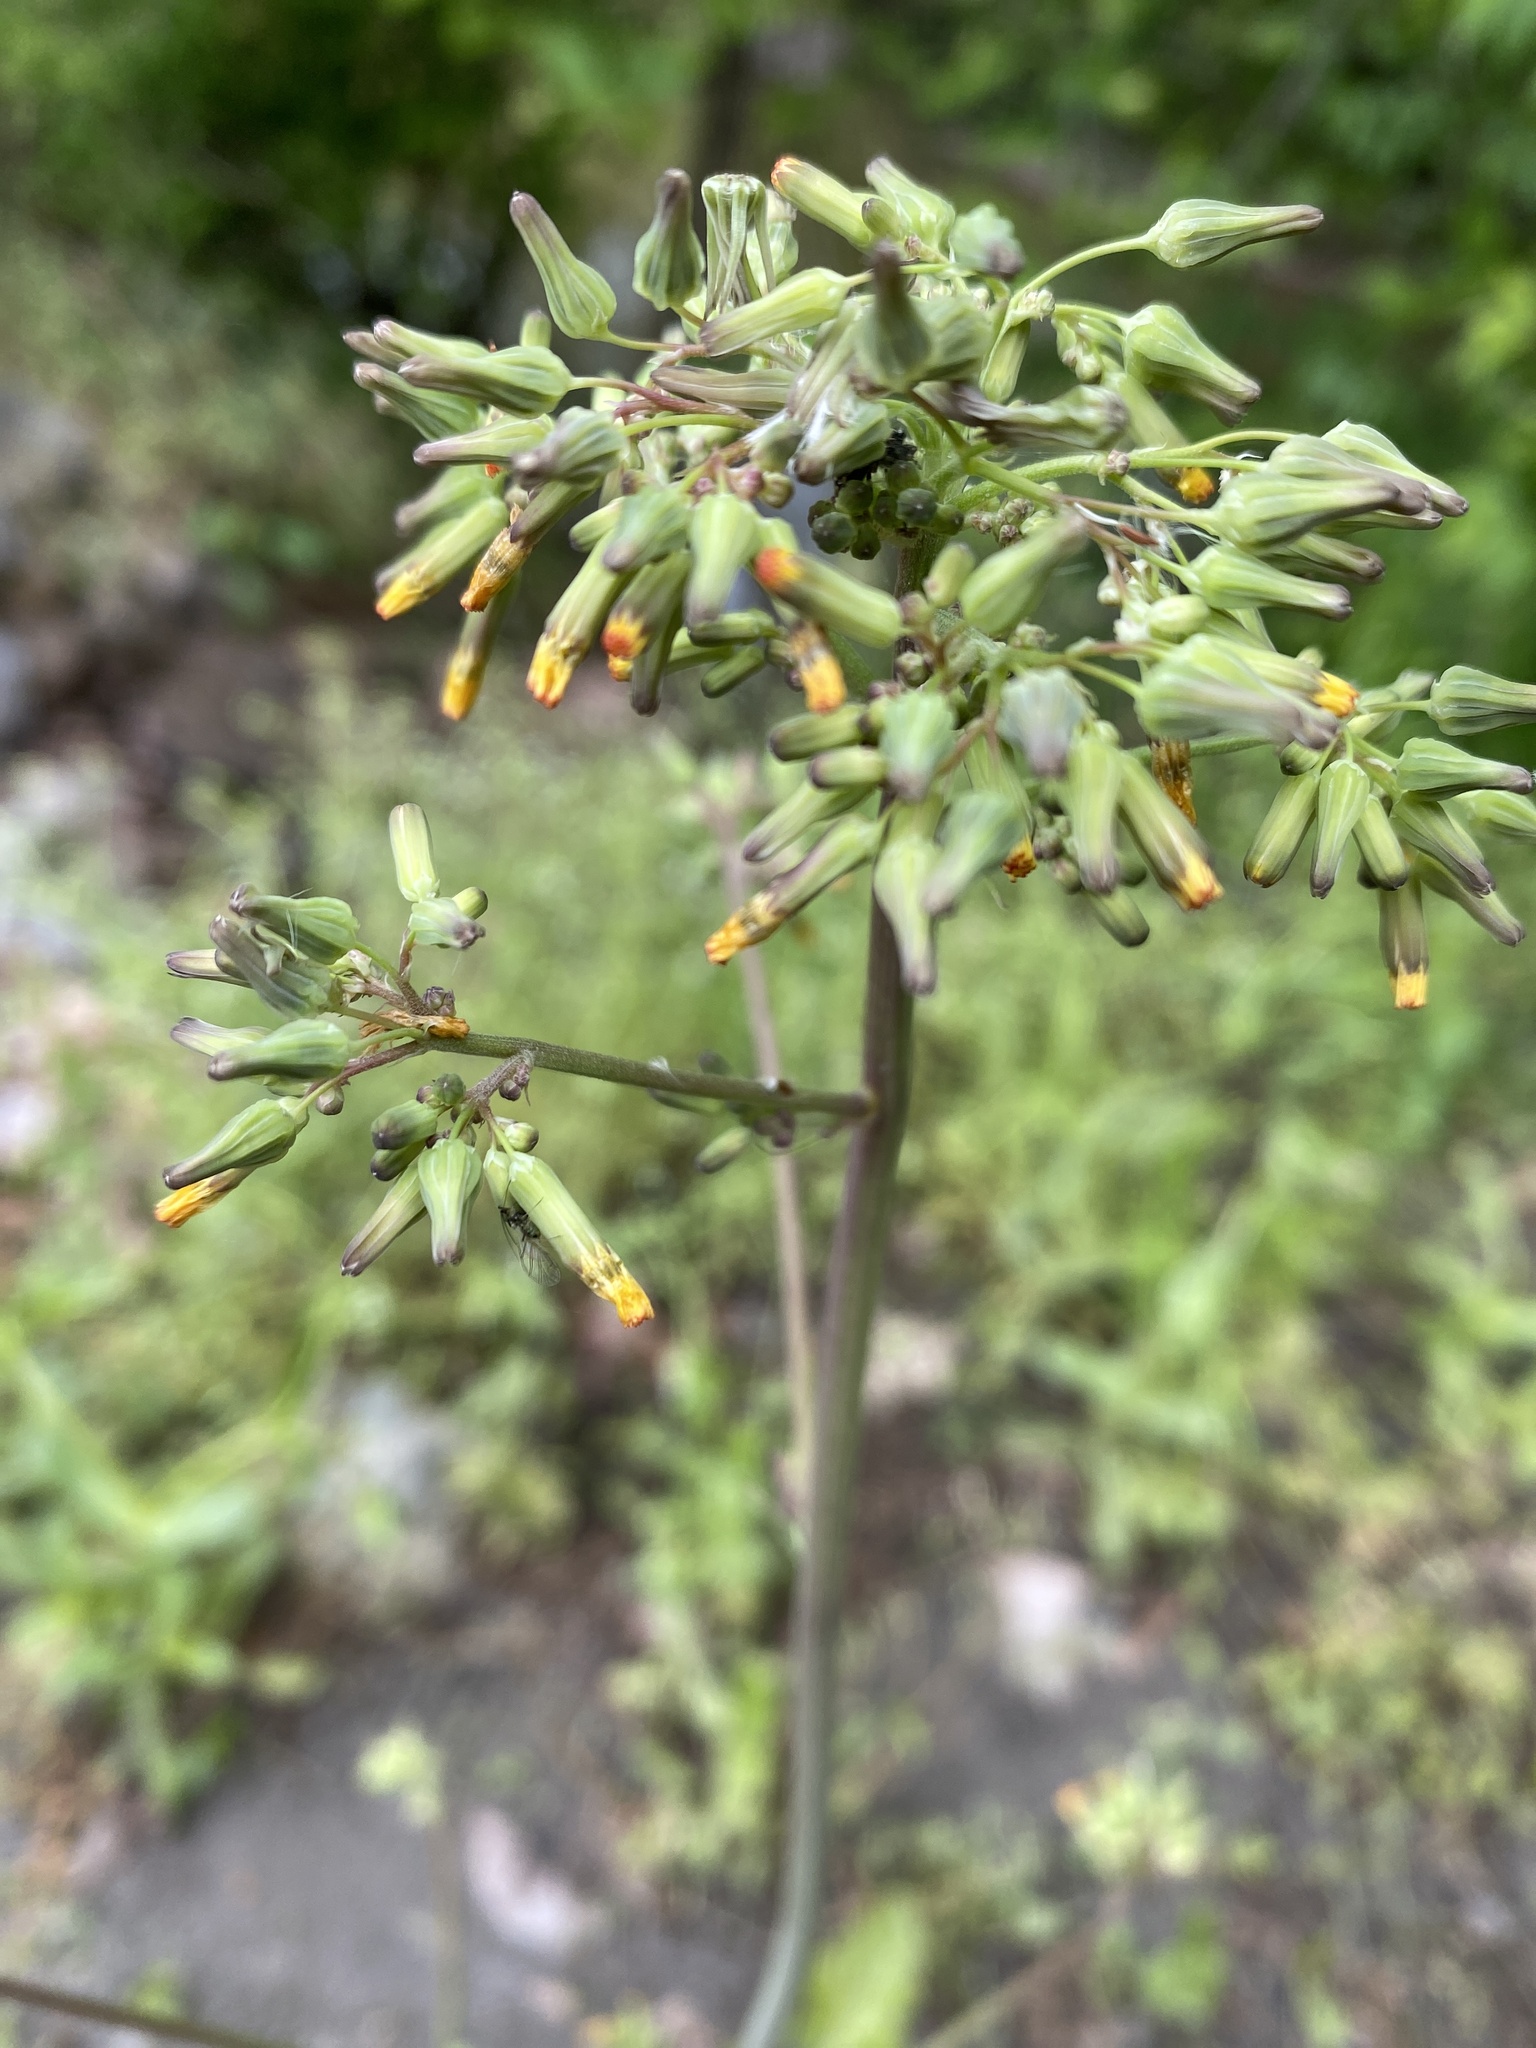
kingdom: Plantae
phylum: Tracheophyta
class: Magnoliopsida
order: Asterales
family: Asteraceae
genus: Youngia
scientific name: Youngia japonica
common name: Oriental false hawksbeard
